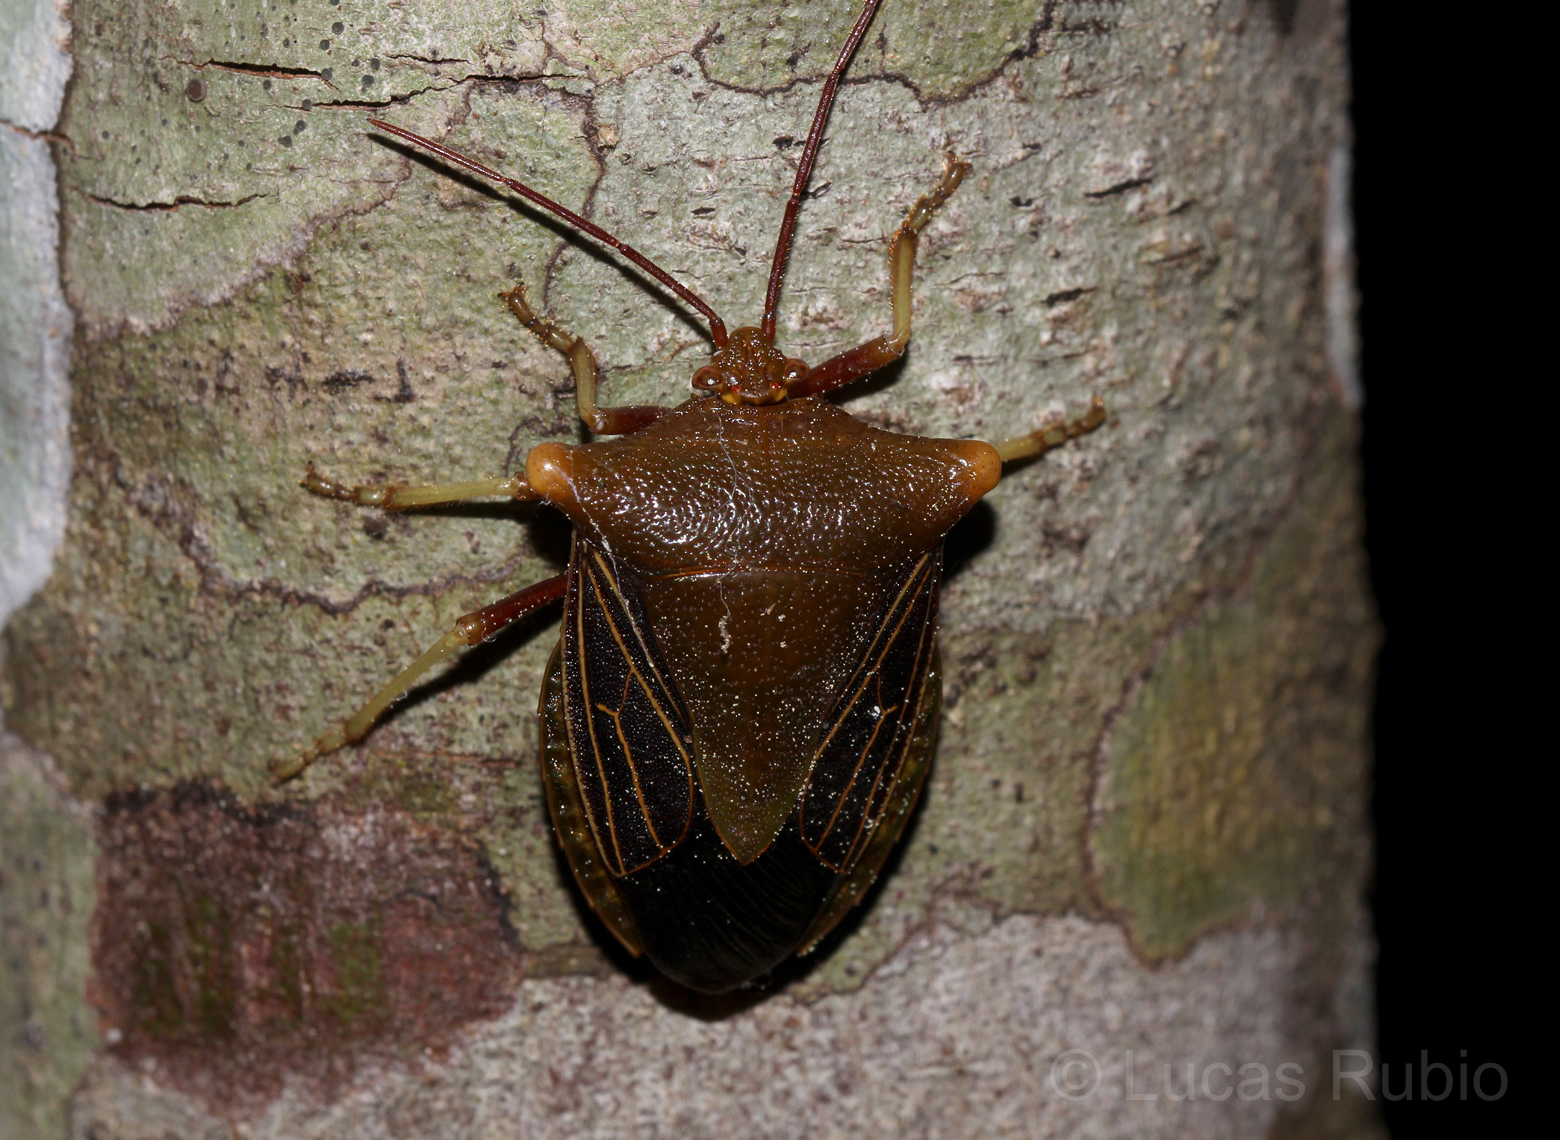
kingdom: Animalia
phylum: Arthropoda
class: Insecta
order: Hemiptera
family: Pentatomidae
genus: Peromatus
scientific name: Peromatus sulcifer
